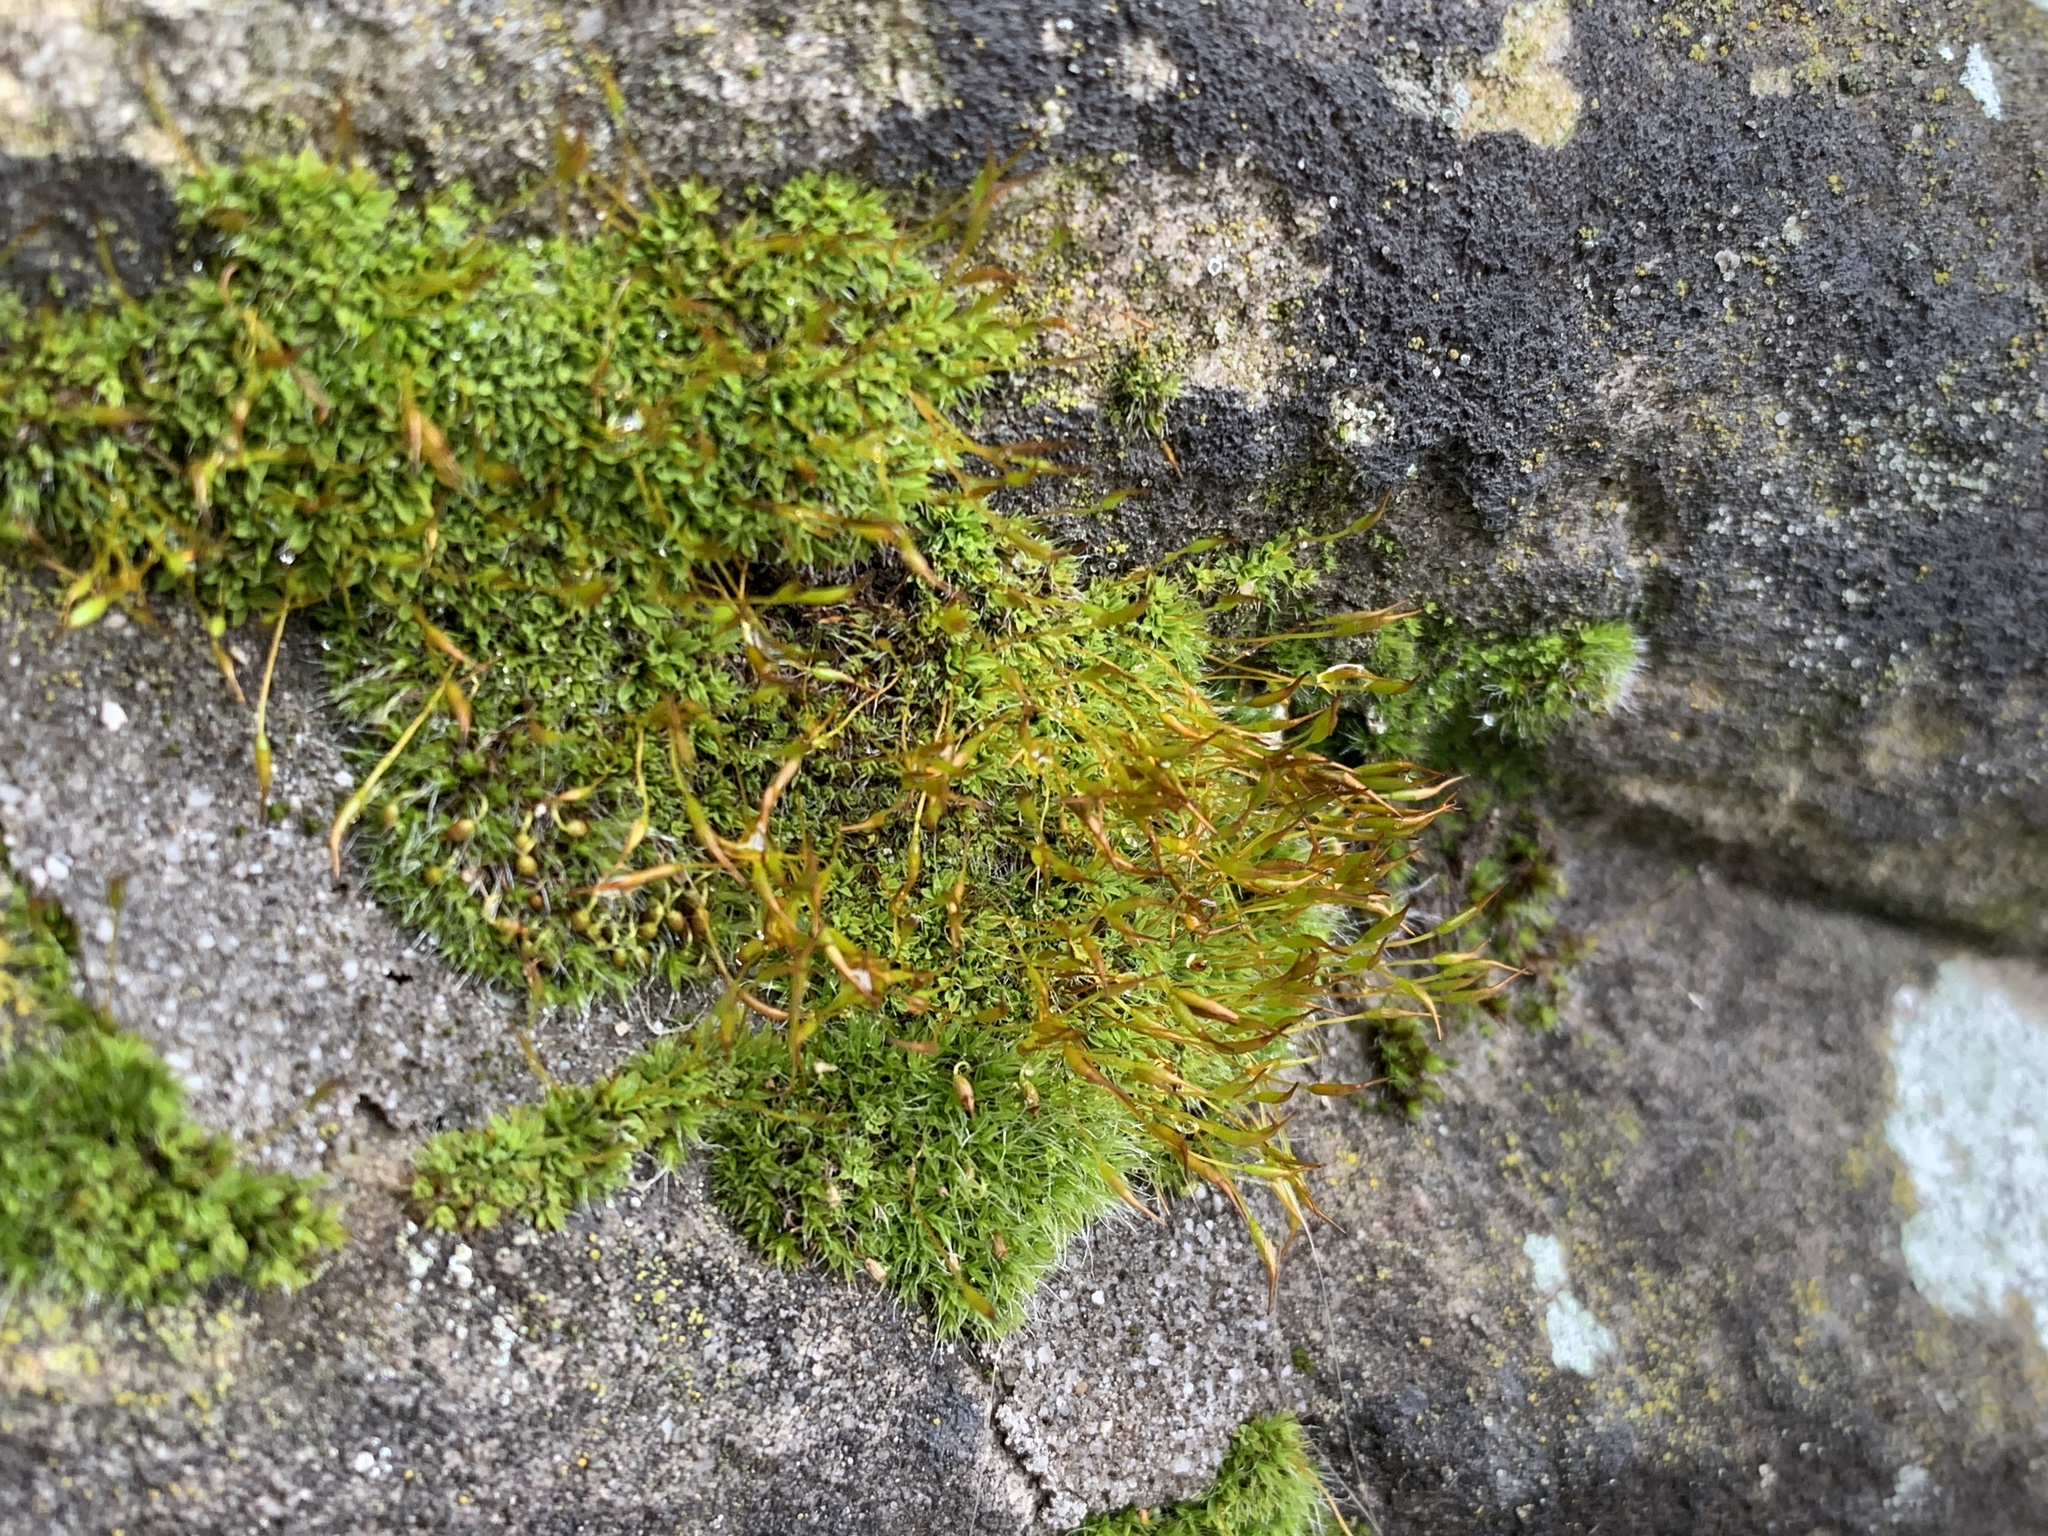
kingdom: Plantae
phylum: Bryophyta
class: Bryopsida
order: Pottiales
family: Pottiaceae
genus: Tortula
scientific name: Tortula muralis
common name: Wall screw-moss
